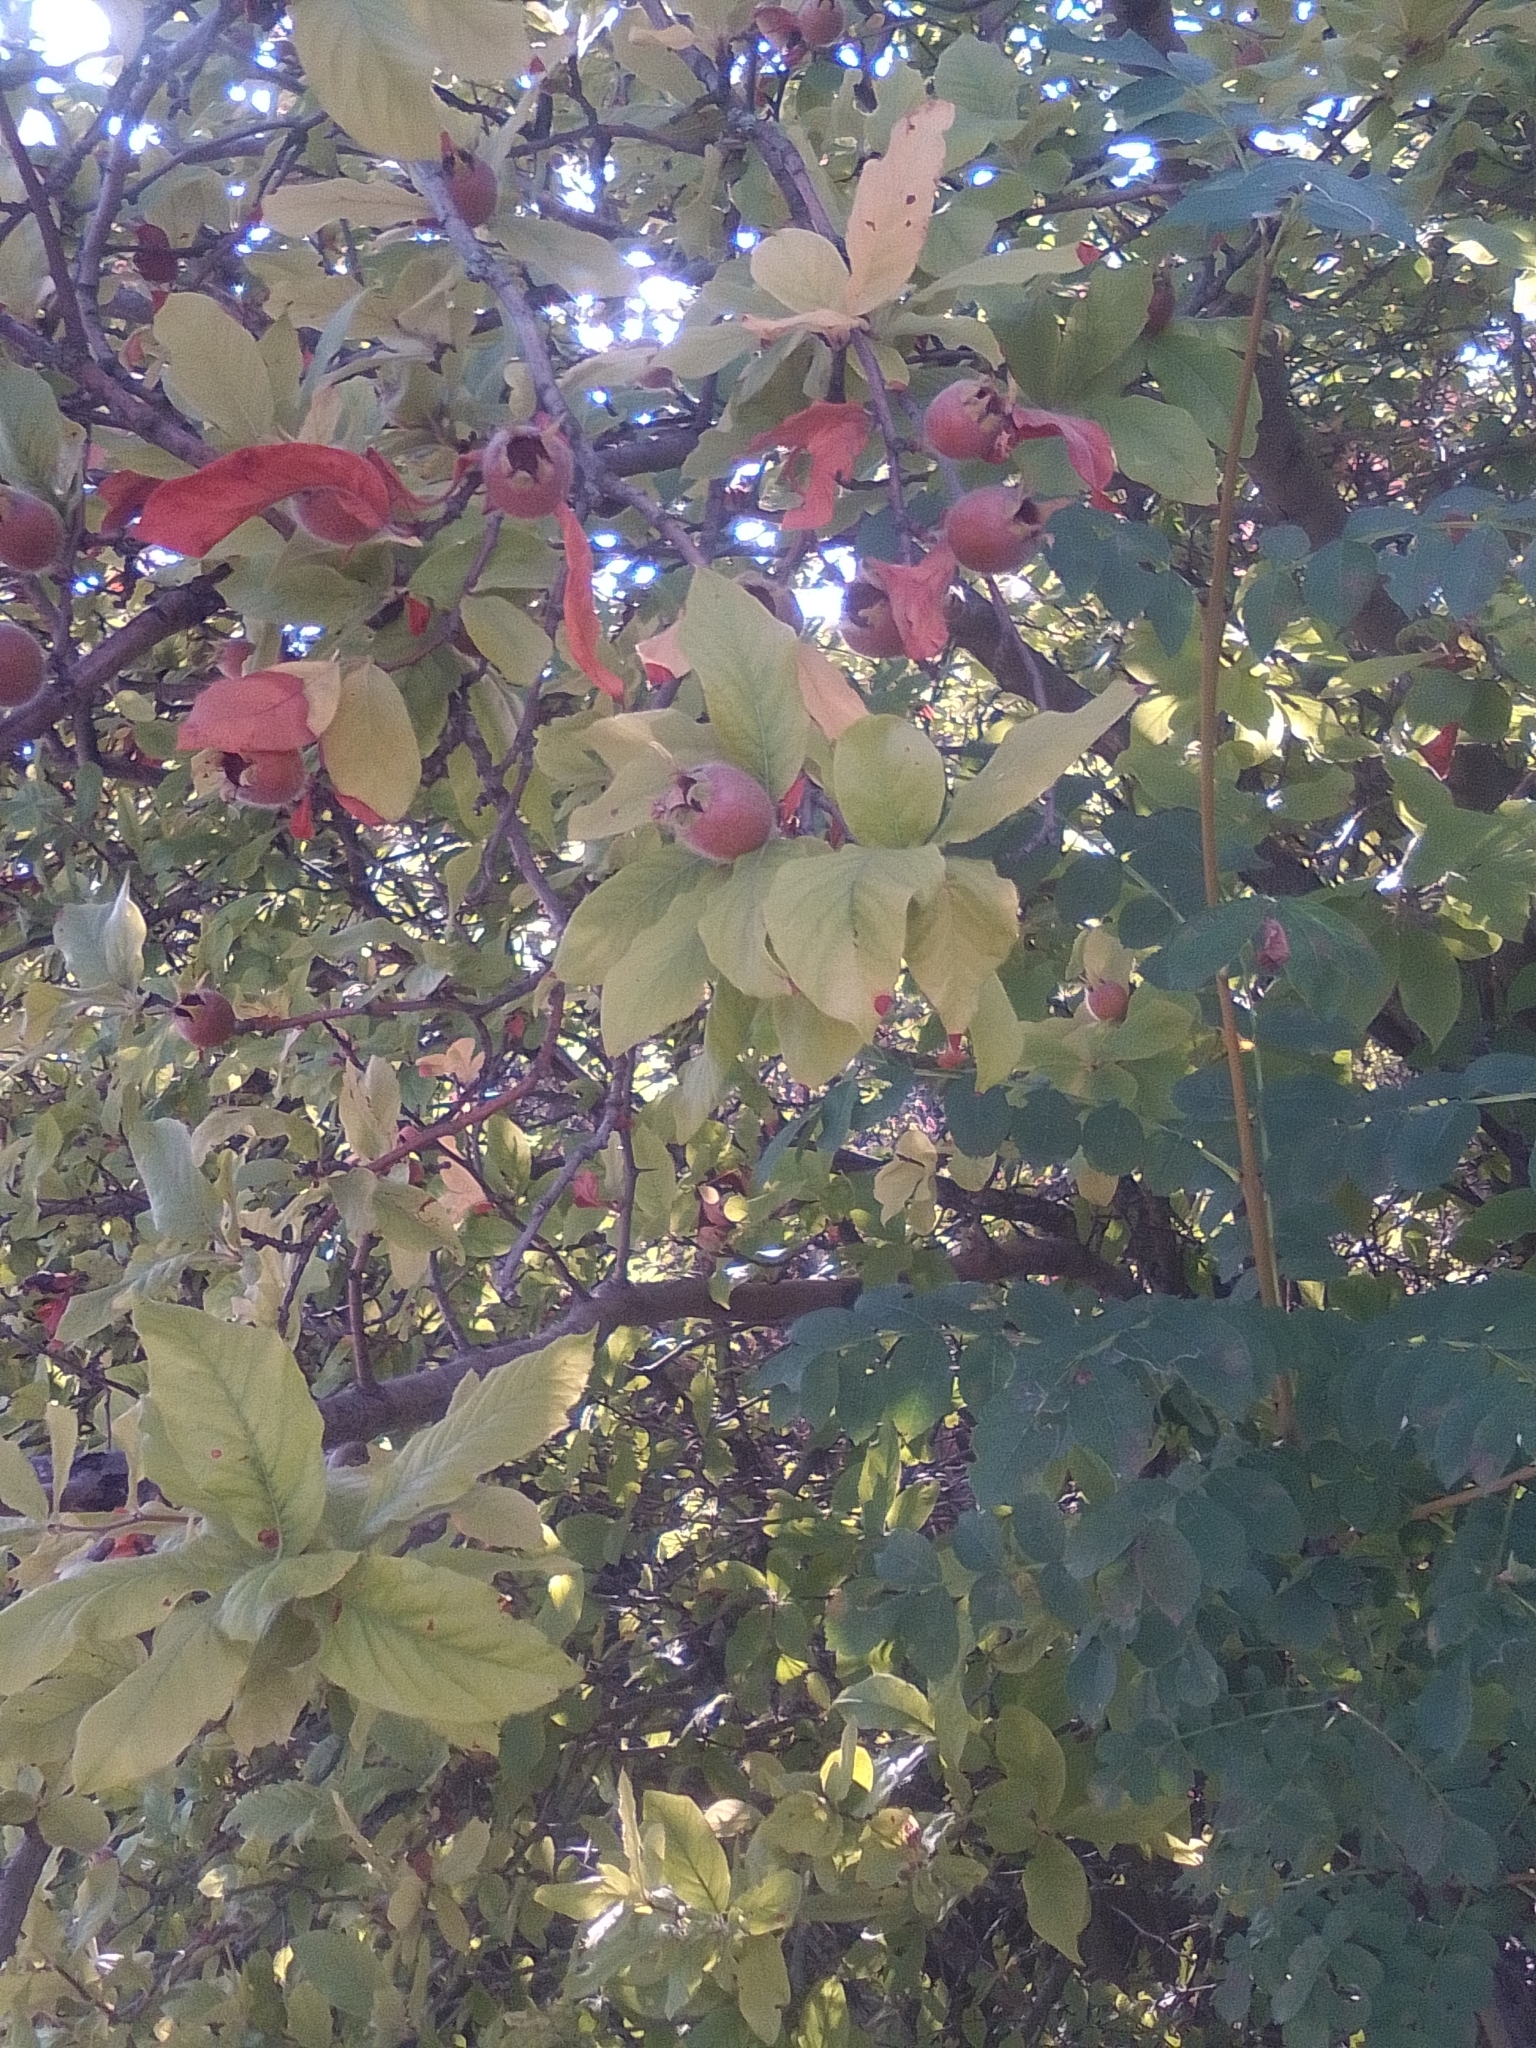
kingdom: Plantae
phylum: Tracheophyta
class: Magnoliopsida
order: Rosales
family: Rosaceae
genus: Mespilus
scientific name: Mespilus germanica
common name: Medlar
